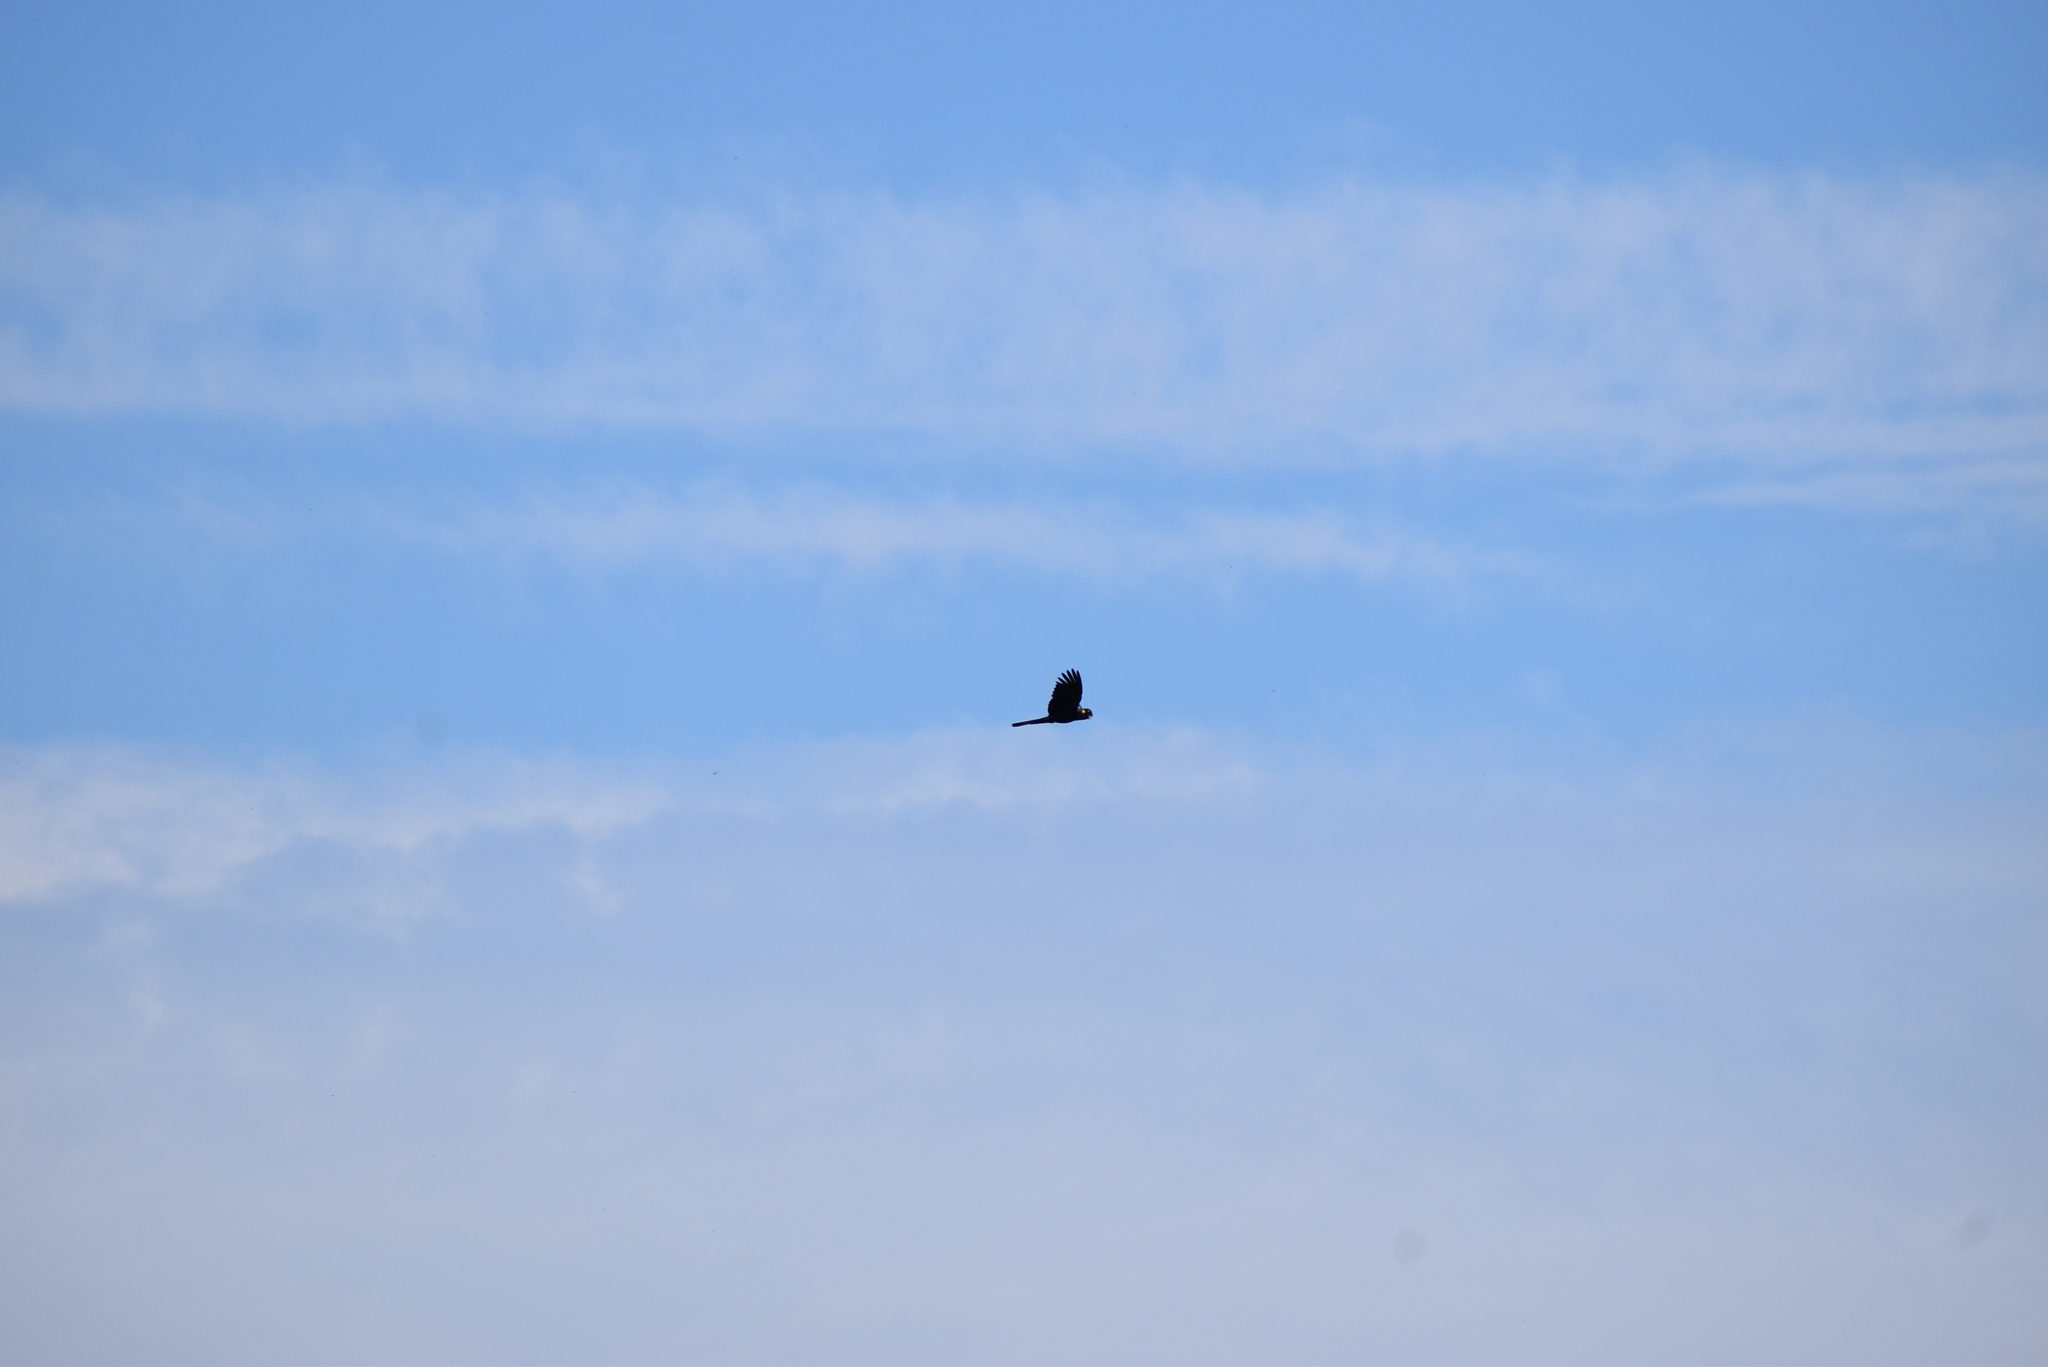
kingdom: Animalia
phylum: Chordata
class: Aves
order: Psittaciformes
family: Cacatuidae
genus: Zanda
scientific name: Zanda funerea
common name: Yellow-tailed black-cockatoo
